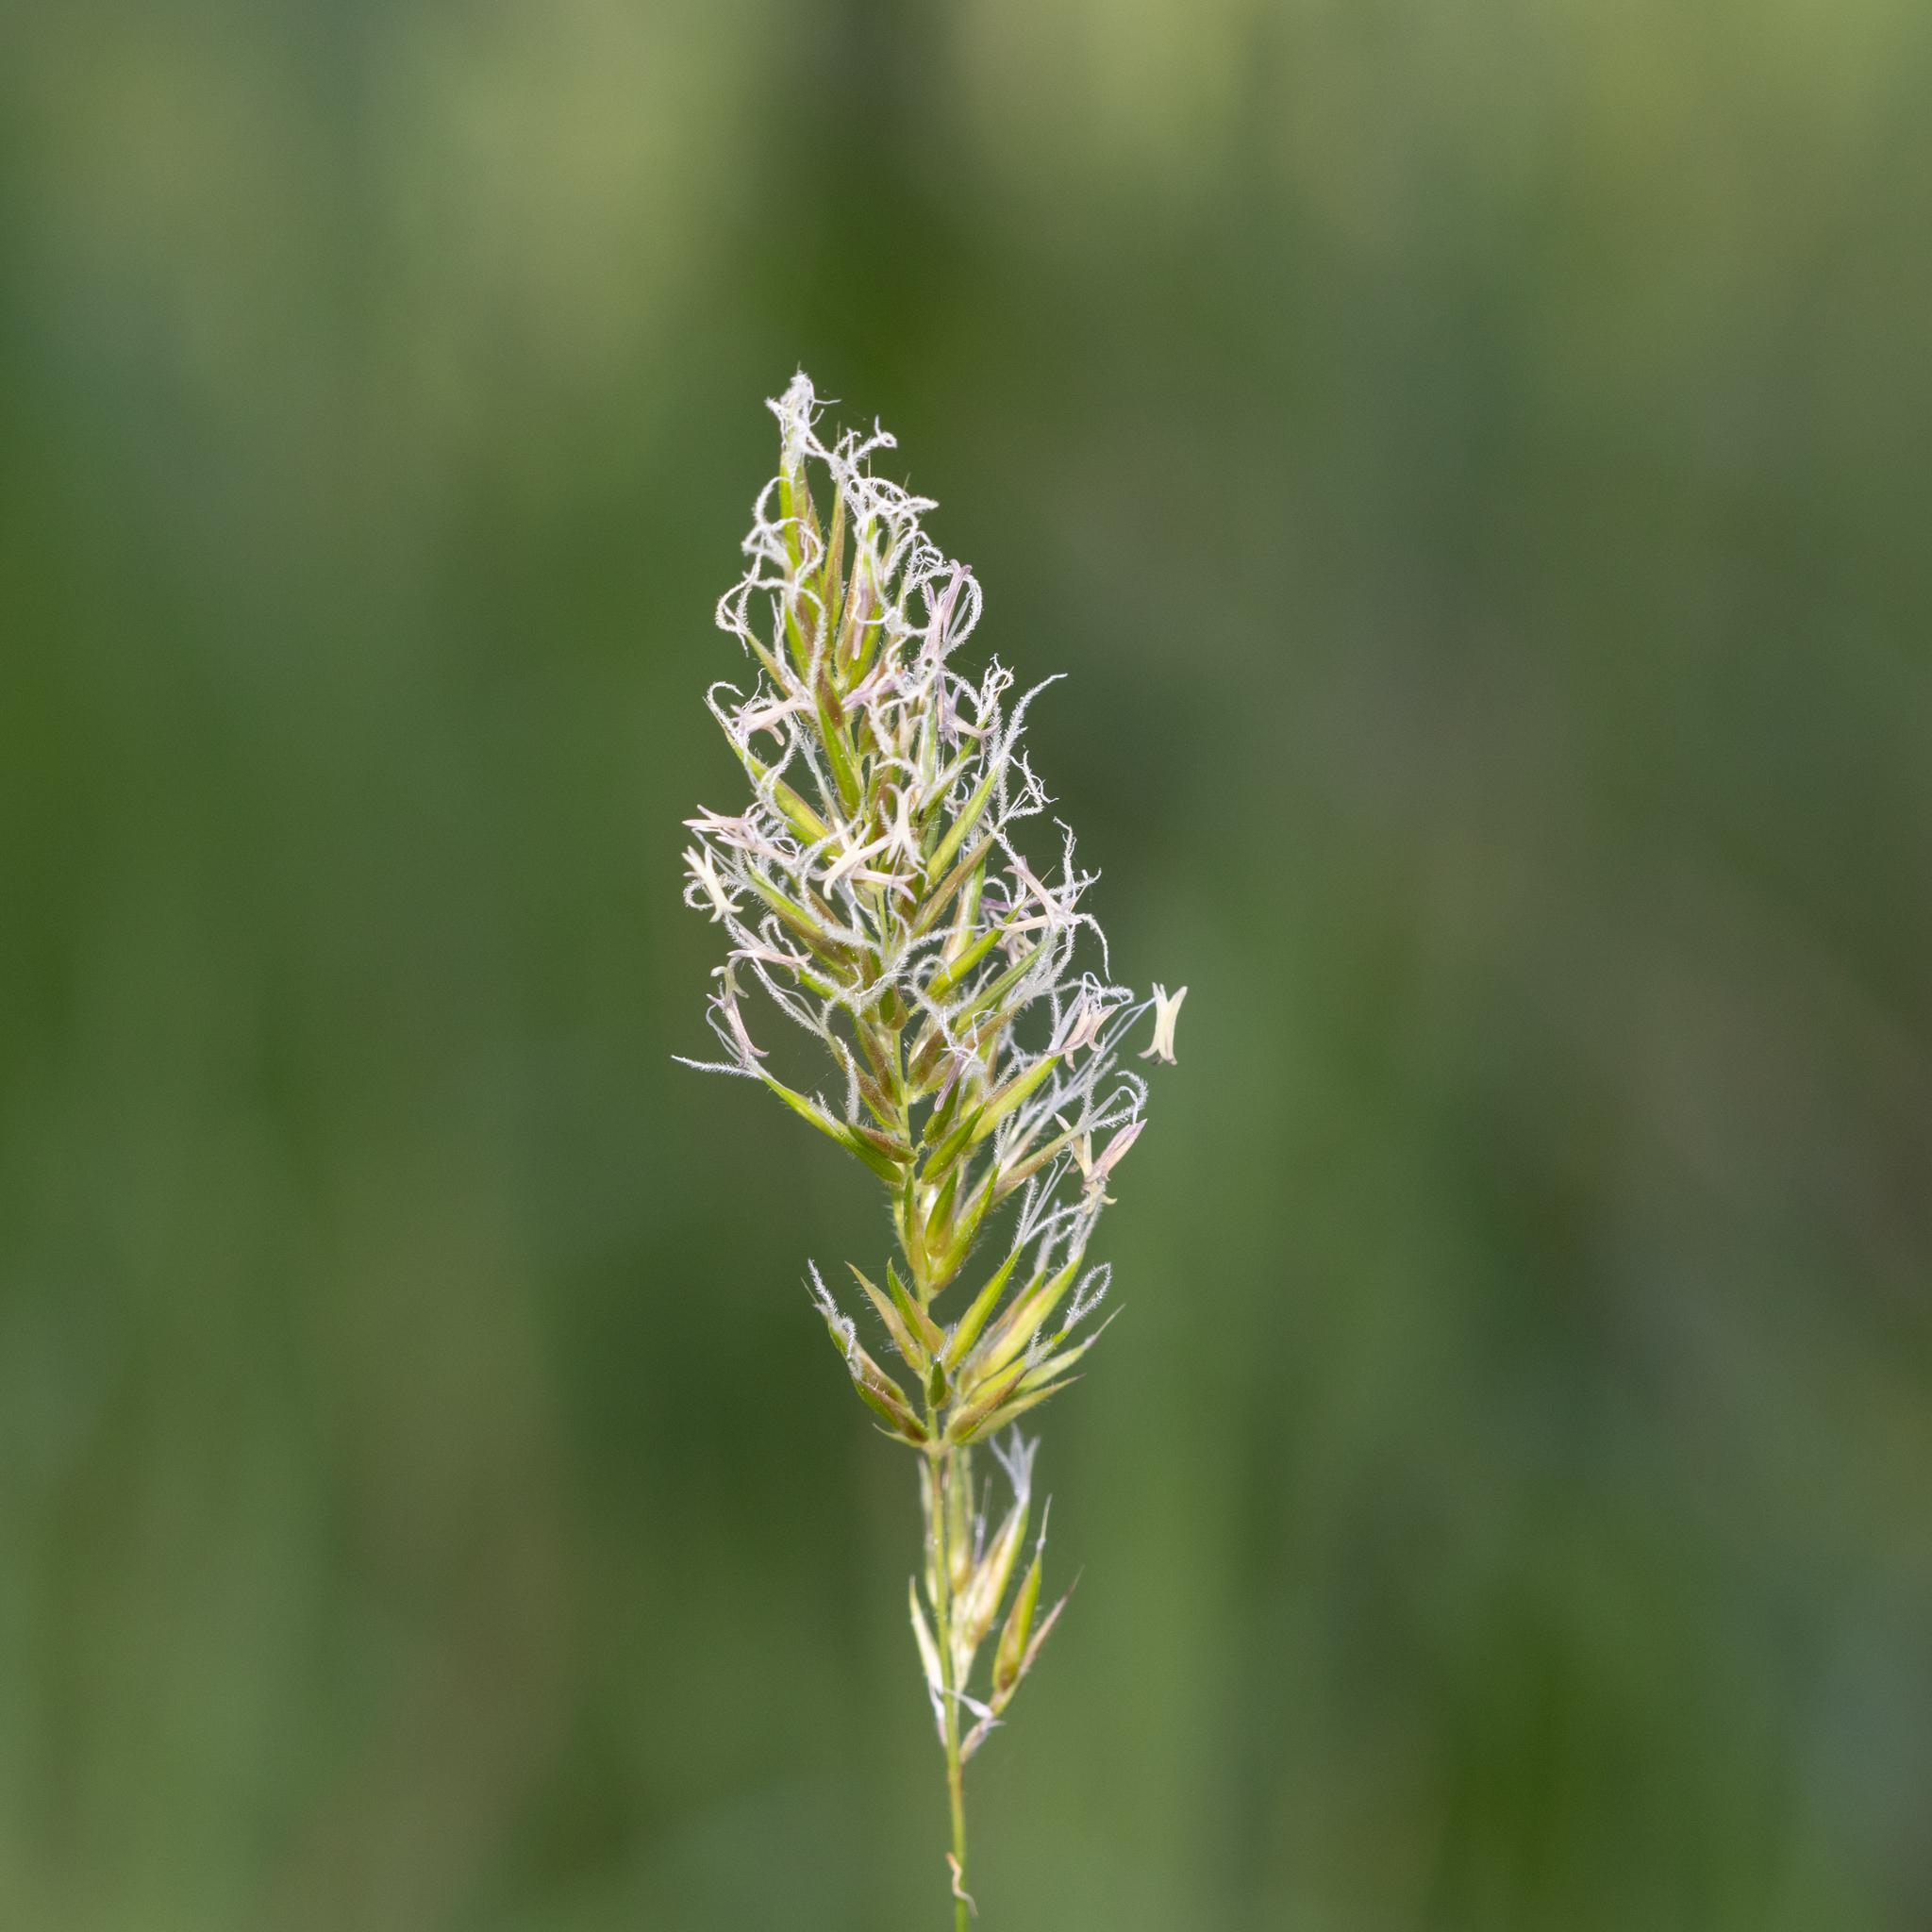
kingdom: Plantae
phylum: Tracheophyta
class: Liliopsida
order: Poales
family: Poaceae
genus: Anthoxanthum
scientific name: Anthoxanthum odoratum
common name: Sweet vernalgrass
